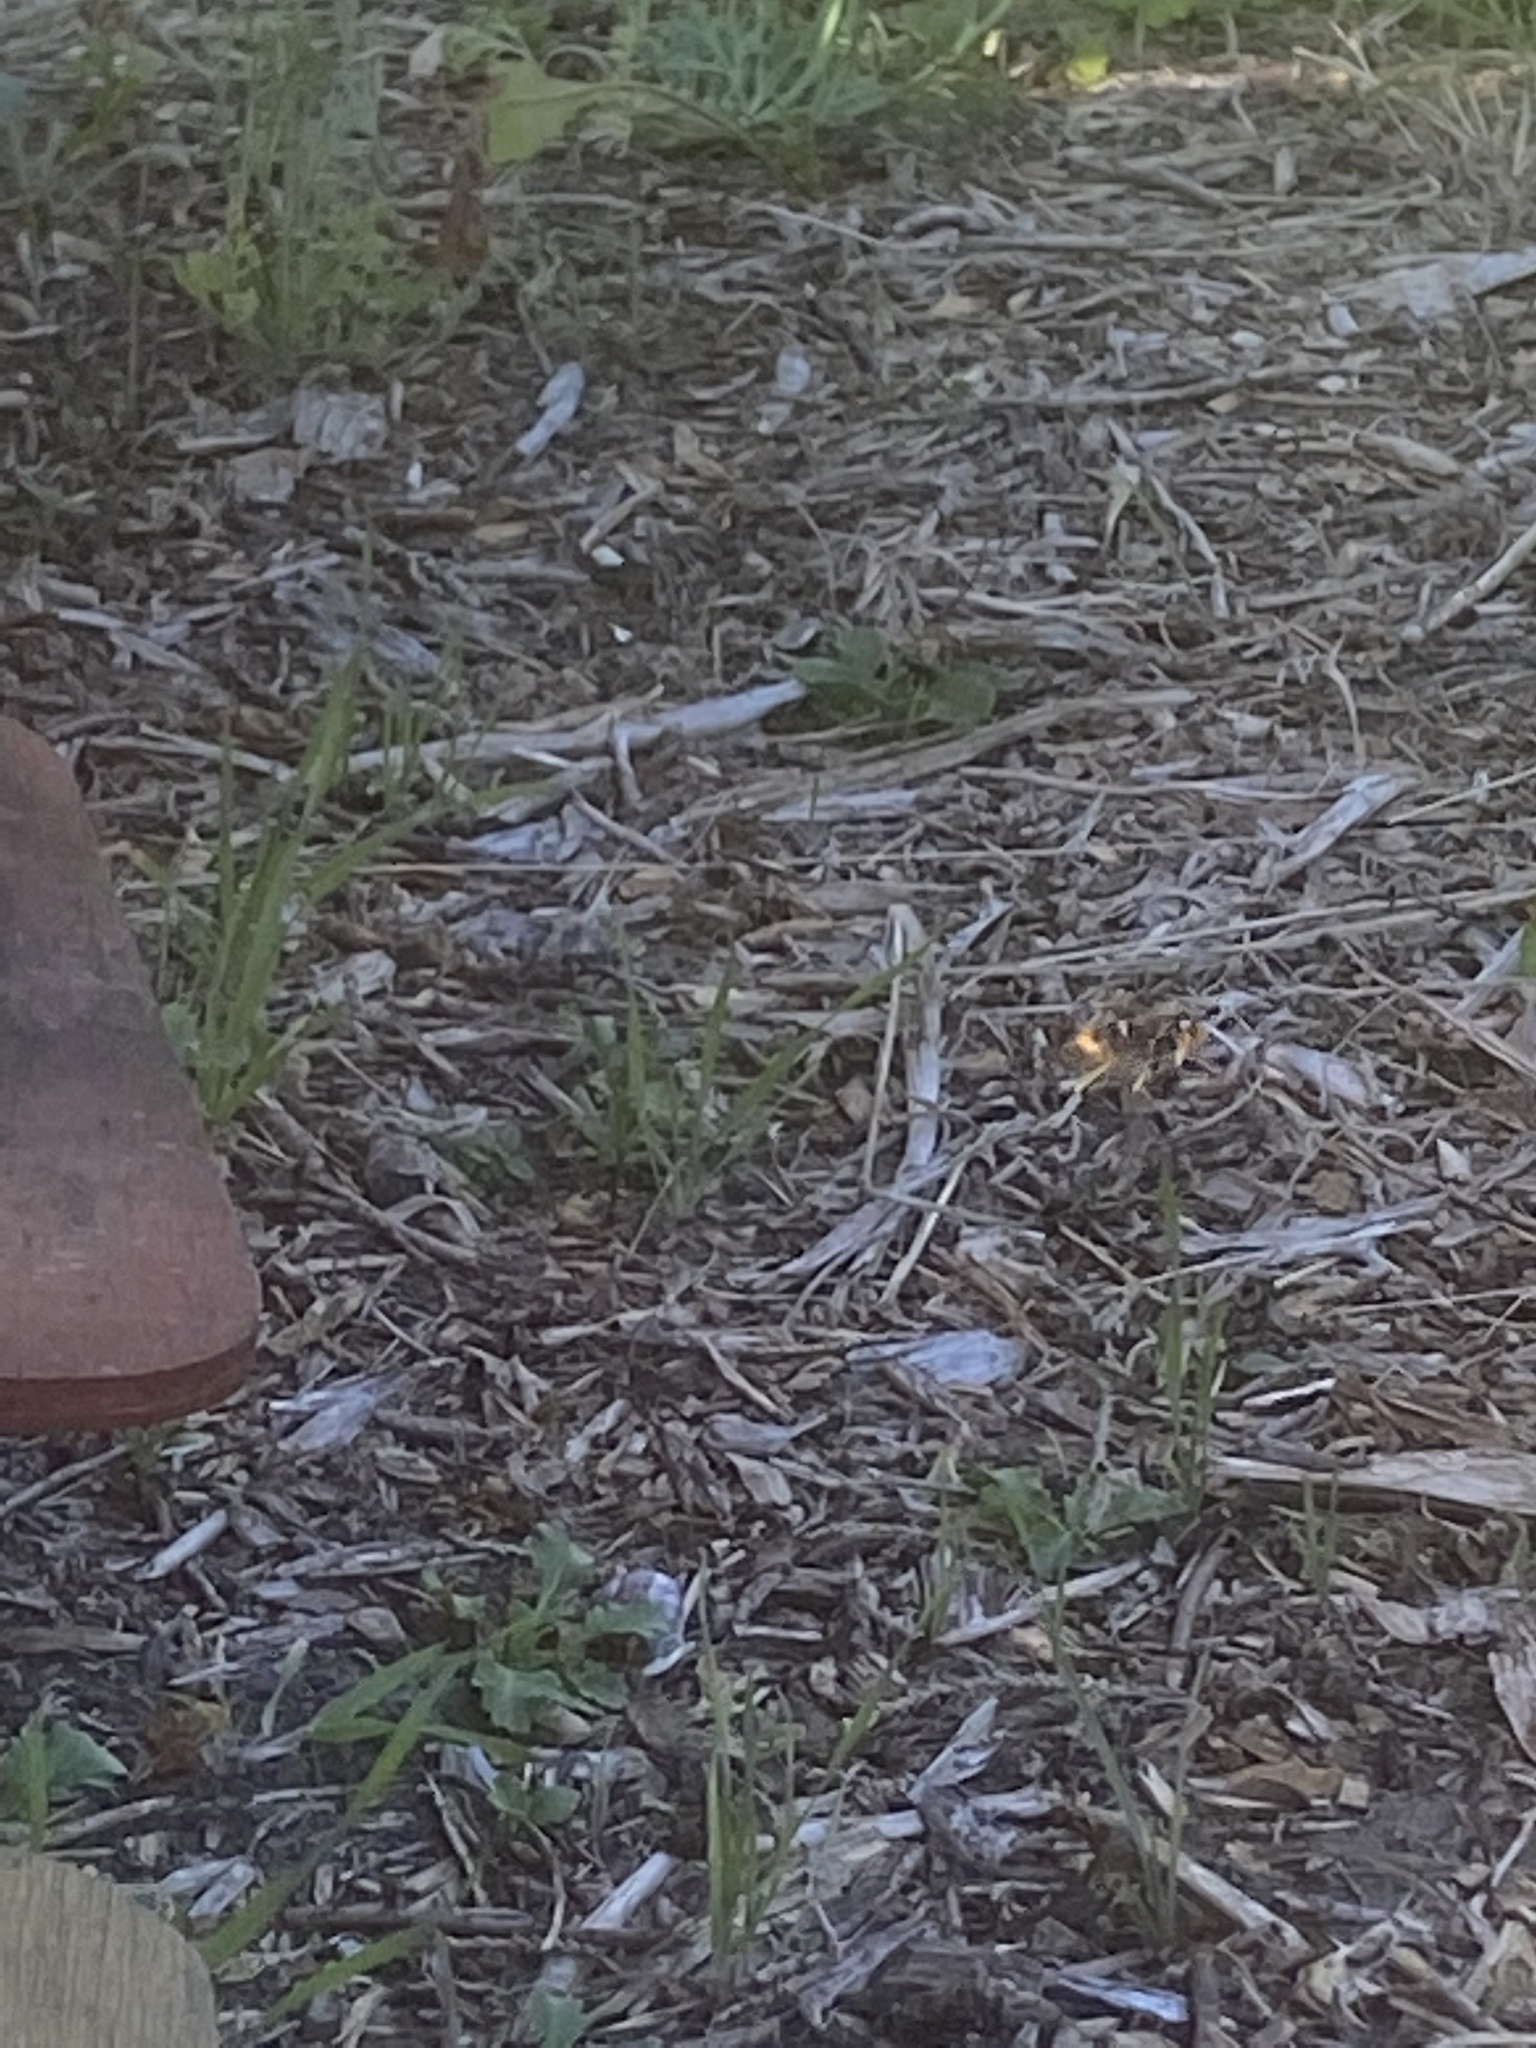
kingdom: Animalia
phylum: Arthropoda
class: Insecta
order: Hymenoptera
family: Vespidae
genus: Vespa
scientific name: Vespa velutina
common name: Asian hornet
